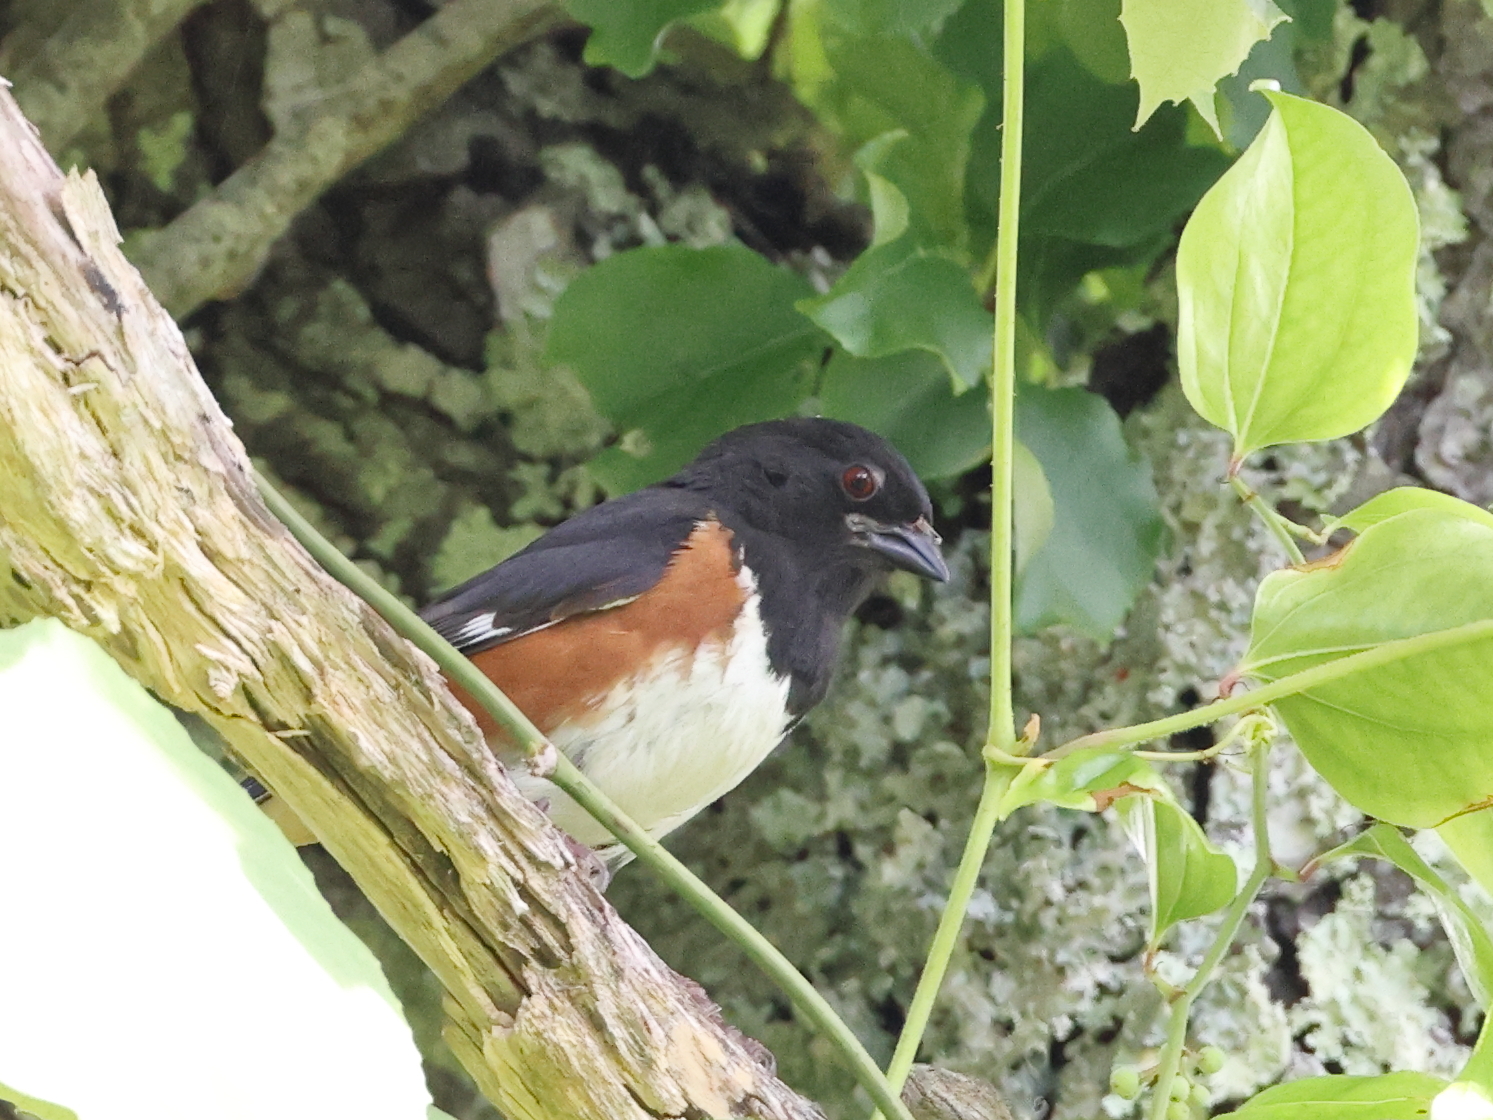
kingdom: Animalia
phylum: Chordata
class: Aves
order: Passeriformes
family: Passerellidae
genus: Pipilo
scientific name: Pipilo erythrophthalmus
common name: Eastern towhee
